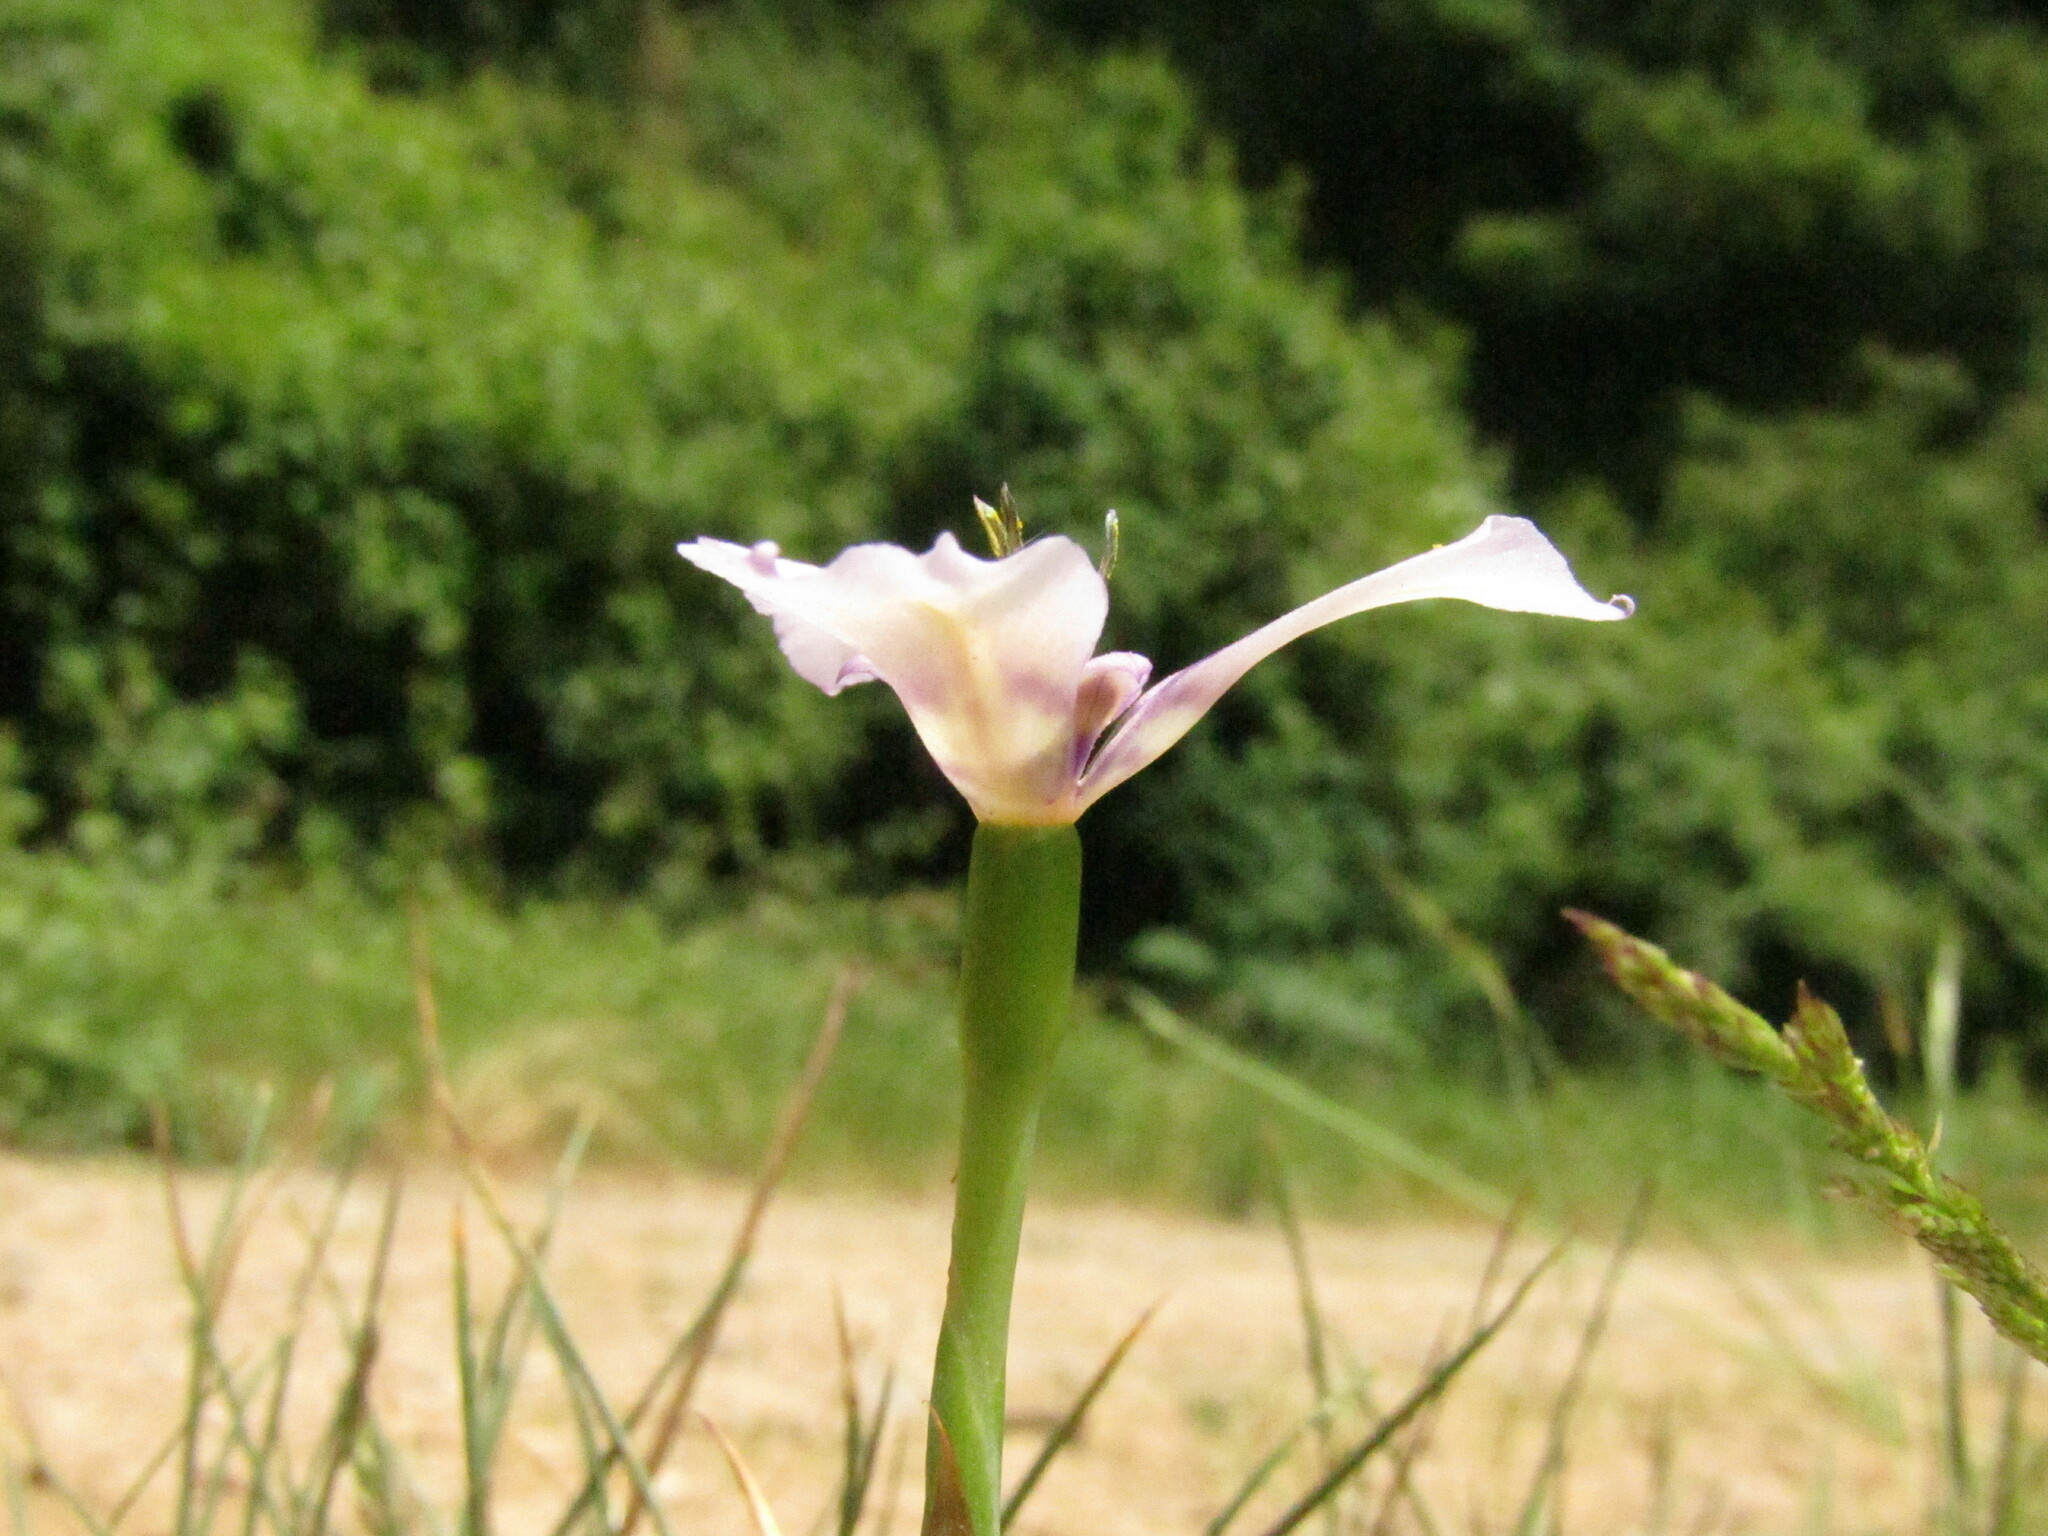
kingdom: Plantae
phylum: Tracheophyta
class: Liliopsida
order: Asparagales
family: Iridaceae
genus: Herbertia
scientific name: Herbertia lahue
